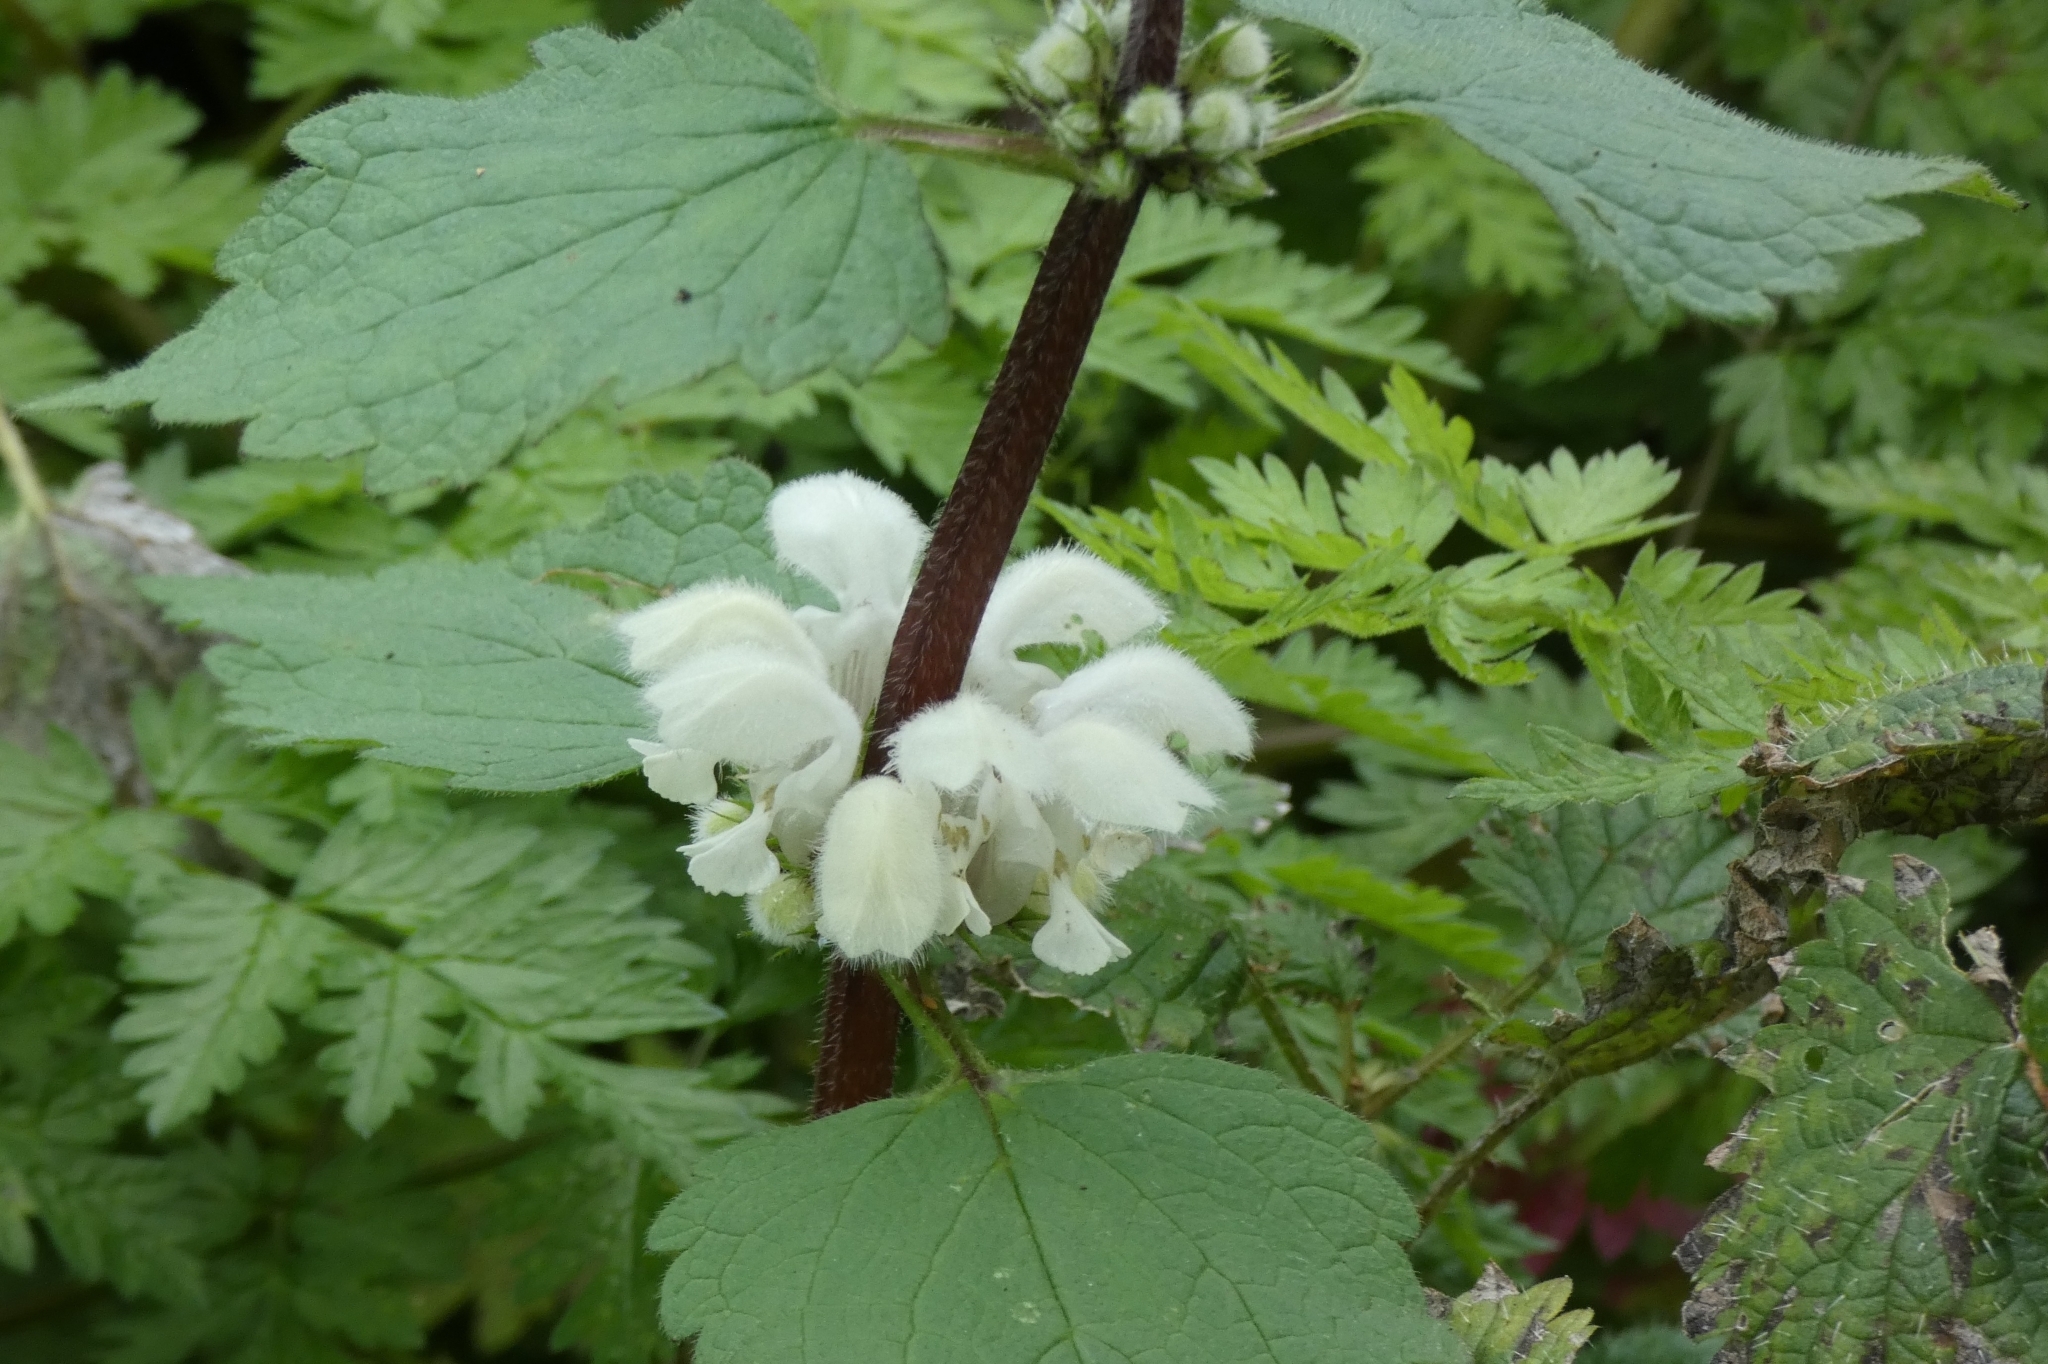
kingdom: Plantae
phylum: Tracheophyta
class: Magnoliopsida
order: Lamiales
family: Lamiaceae
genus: Lamium
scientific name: Lamium album
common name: White dead-nettle
